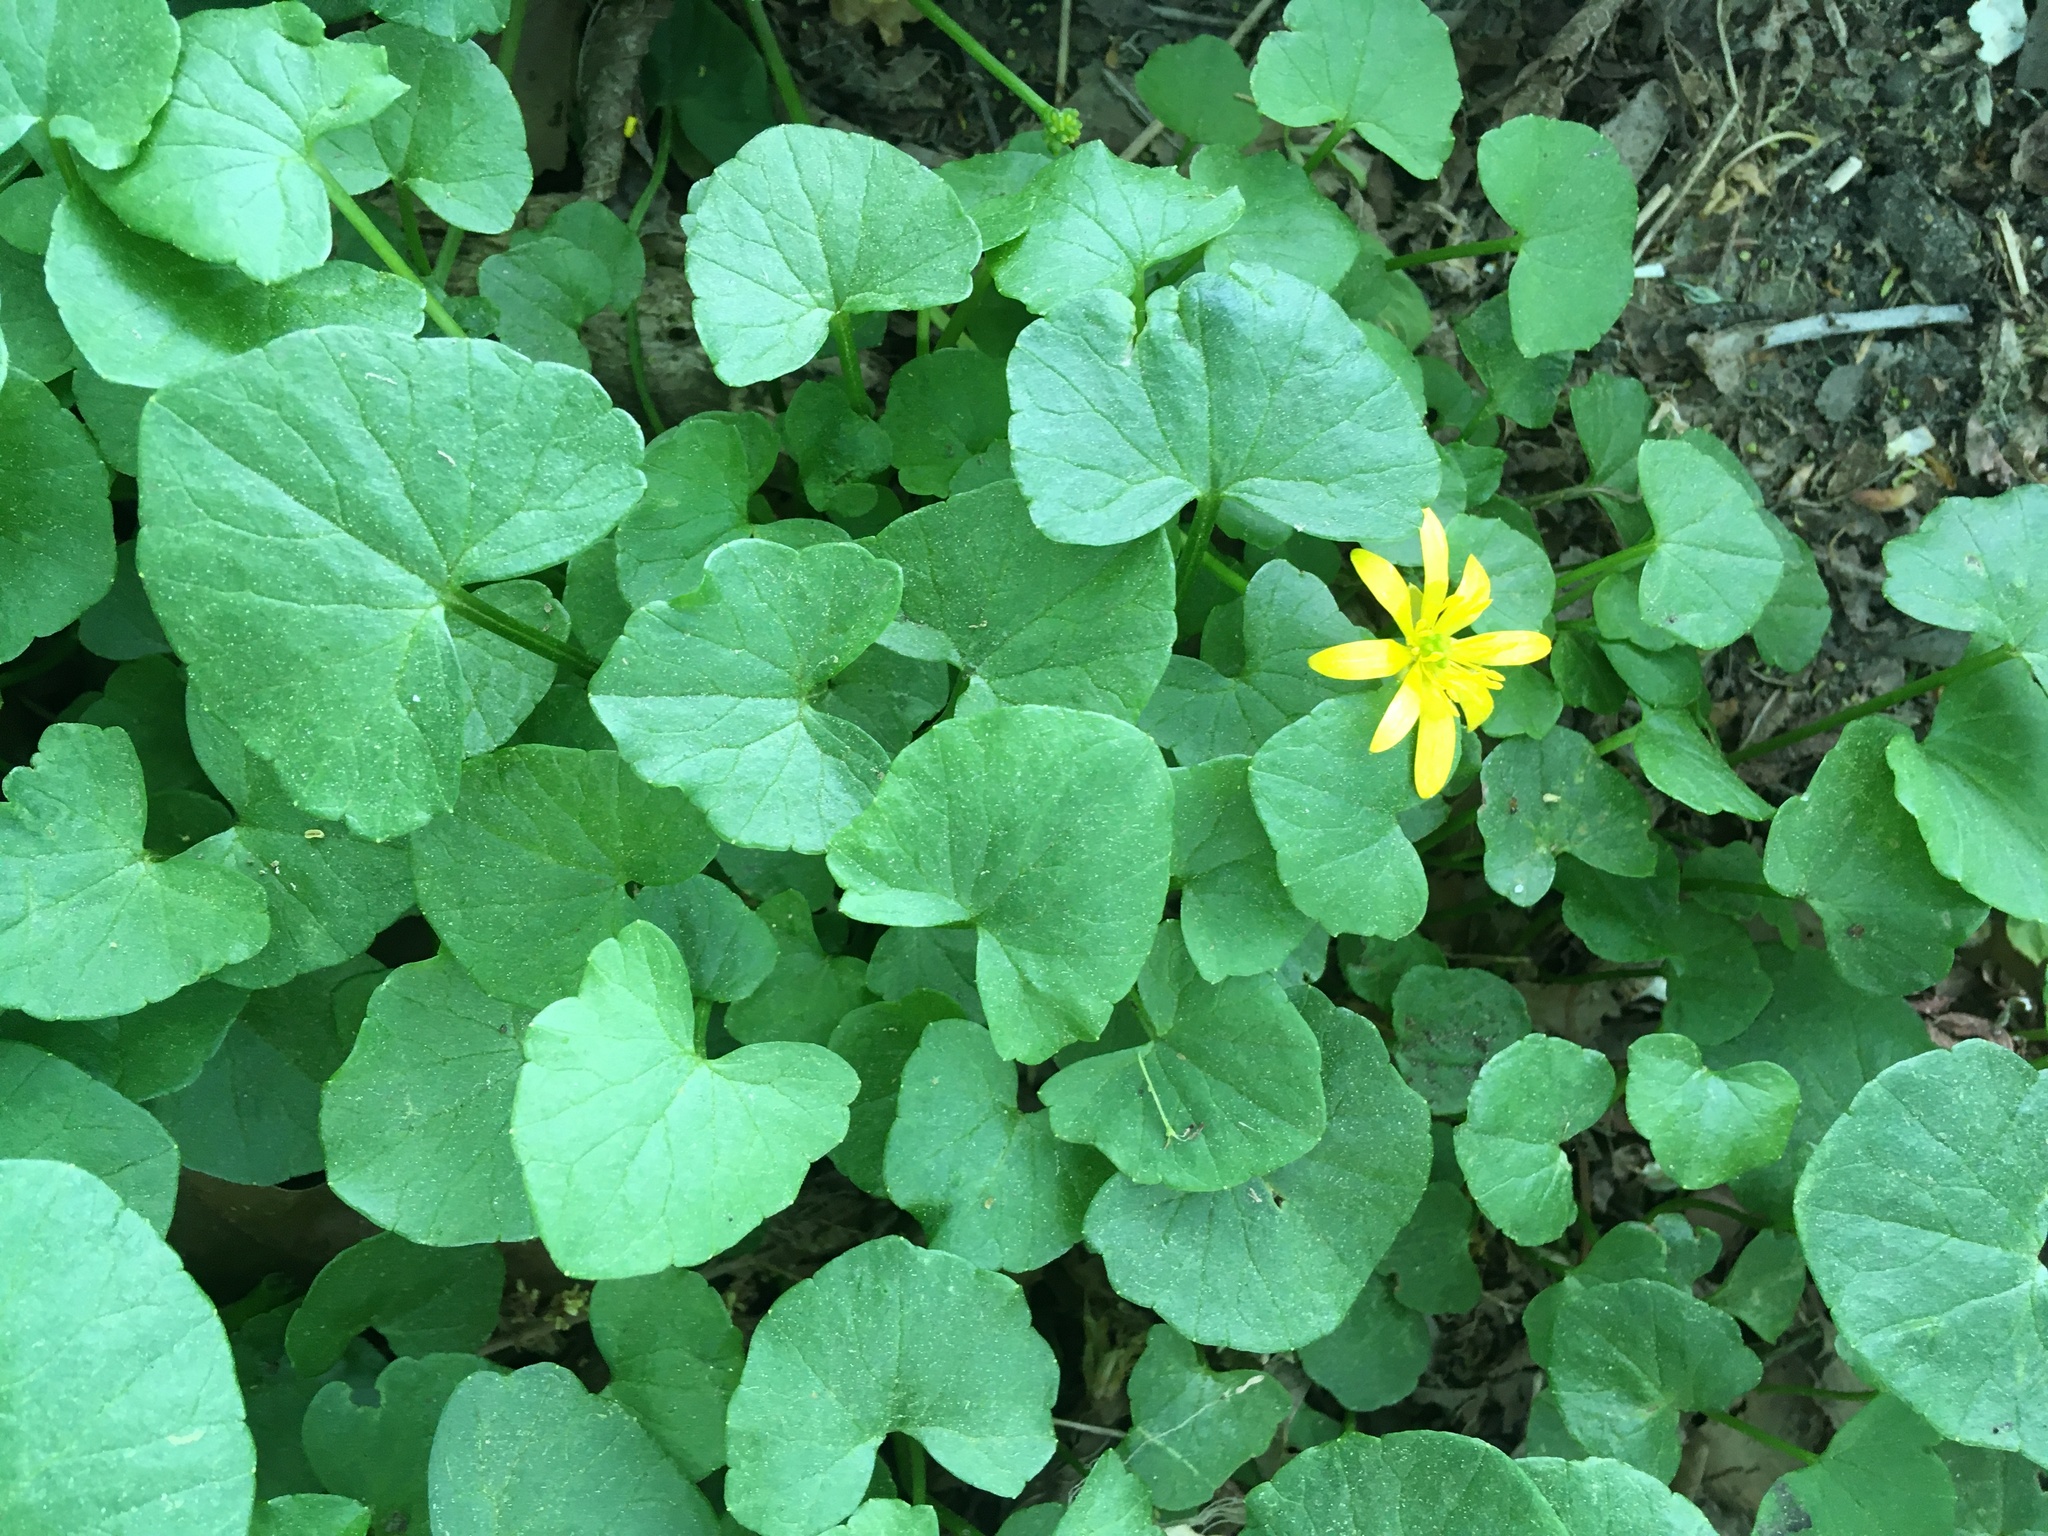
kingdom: Plantae
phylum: Tracheophyta
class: Magnoliopsida
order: Ranunculales
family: Ranunculaceae
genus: Ficaria
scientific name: Ficaria verna
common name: Lesser celandine
